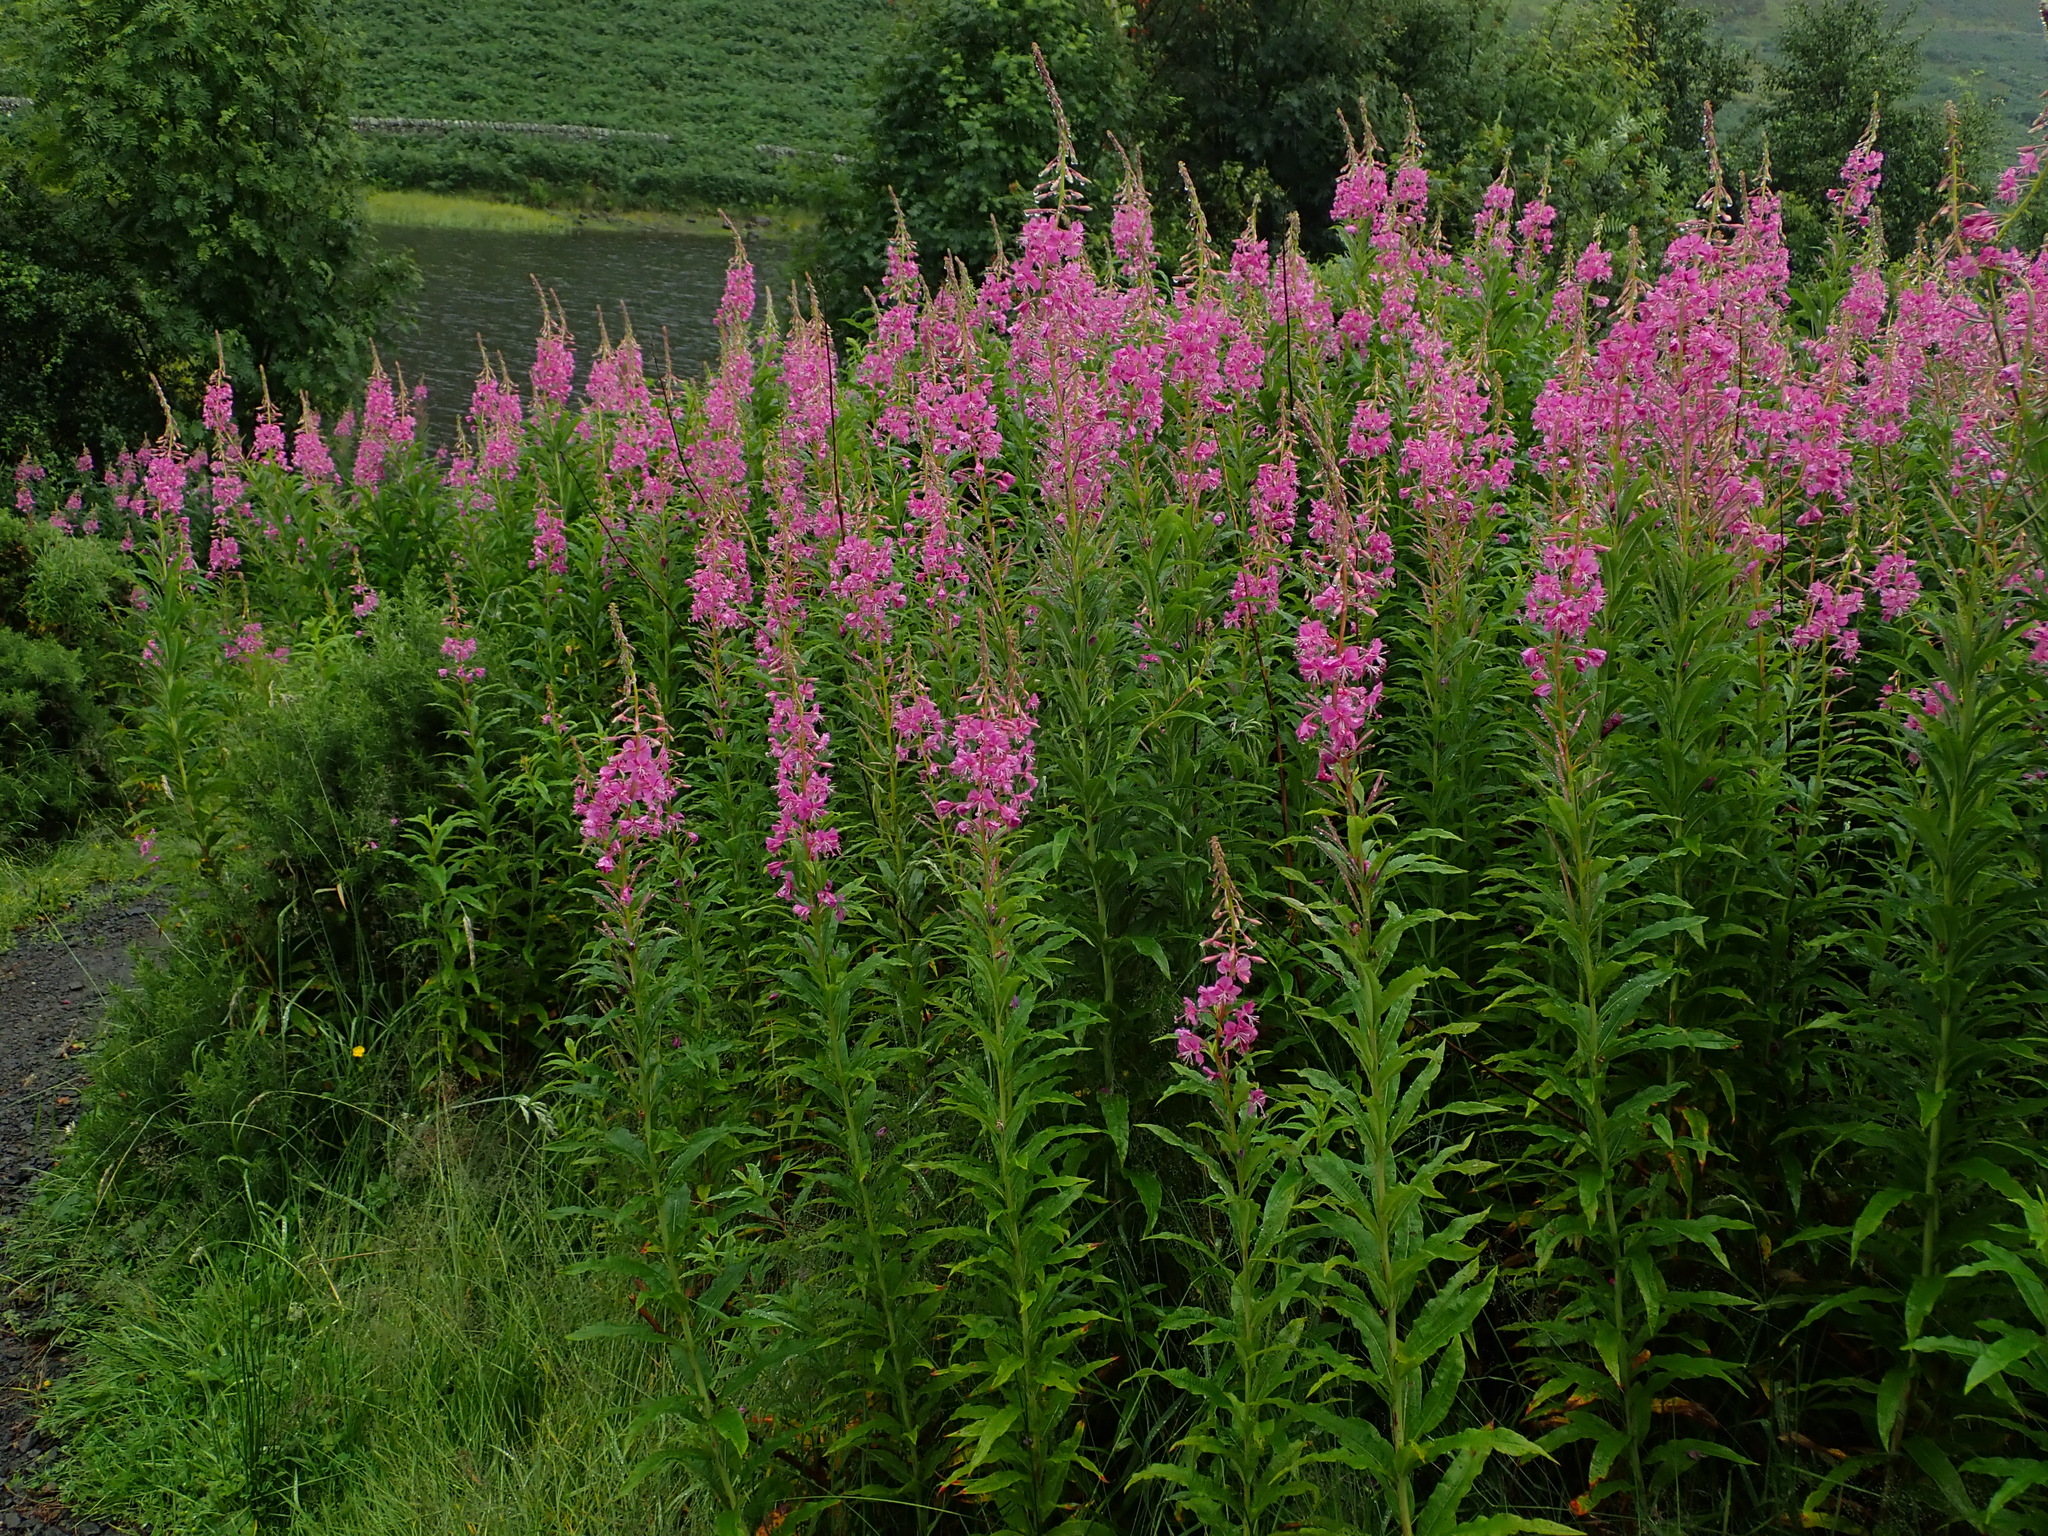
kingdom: Plantae
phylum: Tracheophyta
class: Magnoliopsida
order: Myrtales
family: Onagraceae
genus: Chamaenerion
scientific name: Chamaenerion angustifolium
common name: Fireweed
